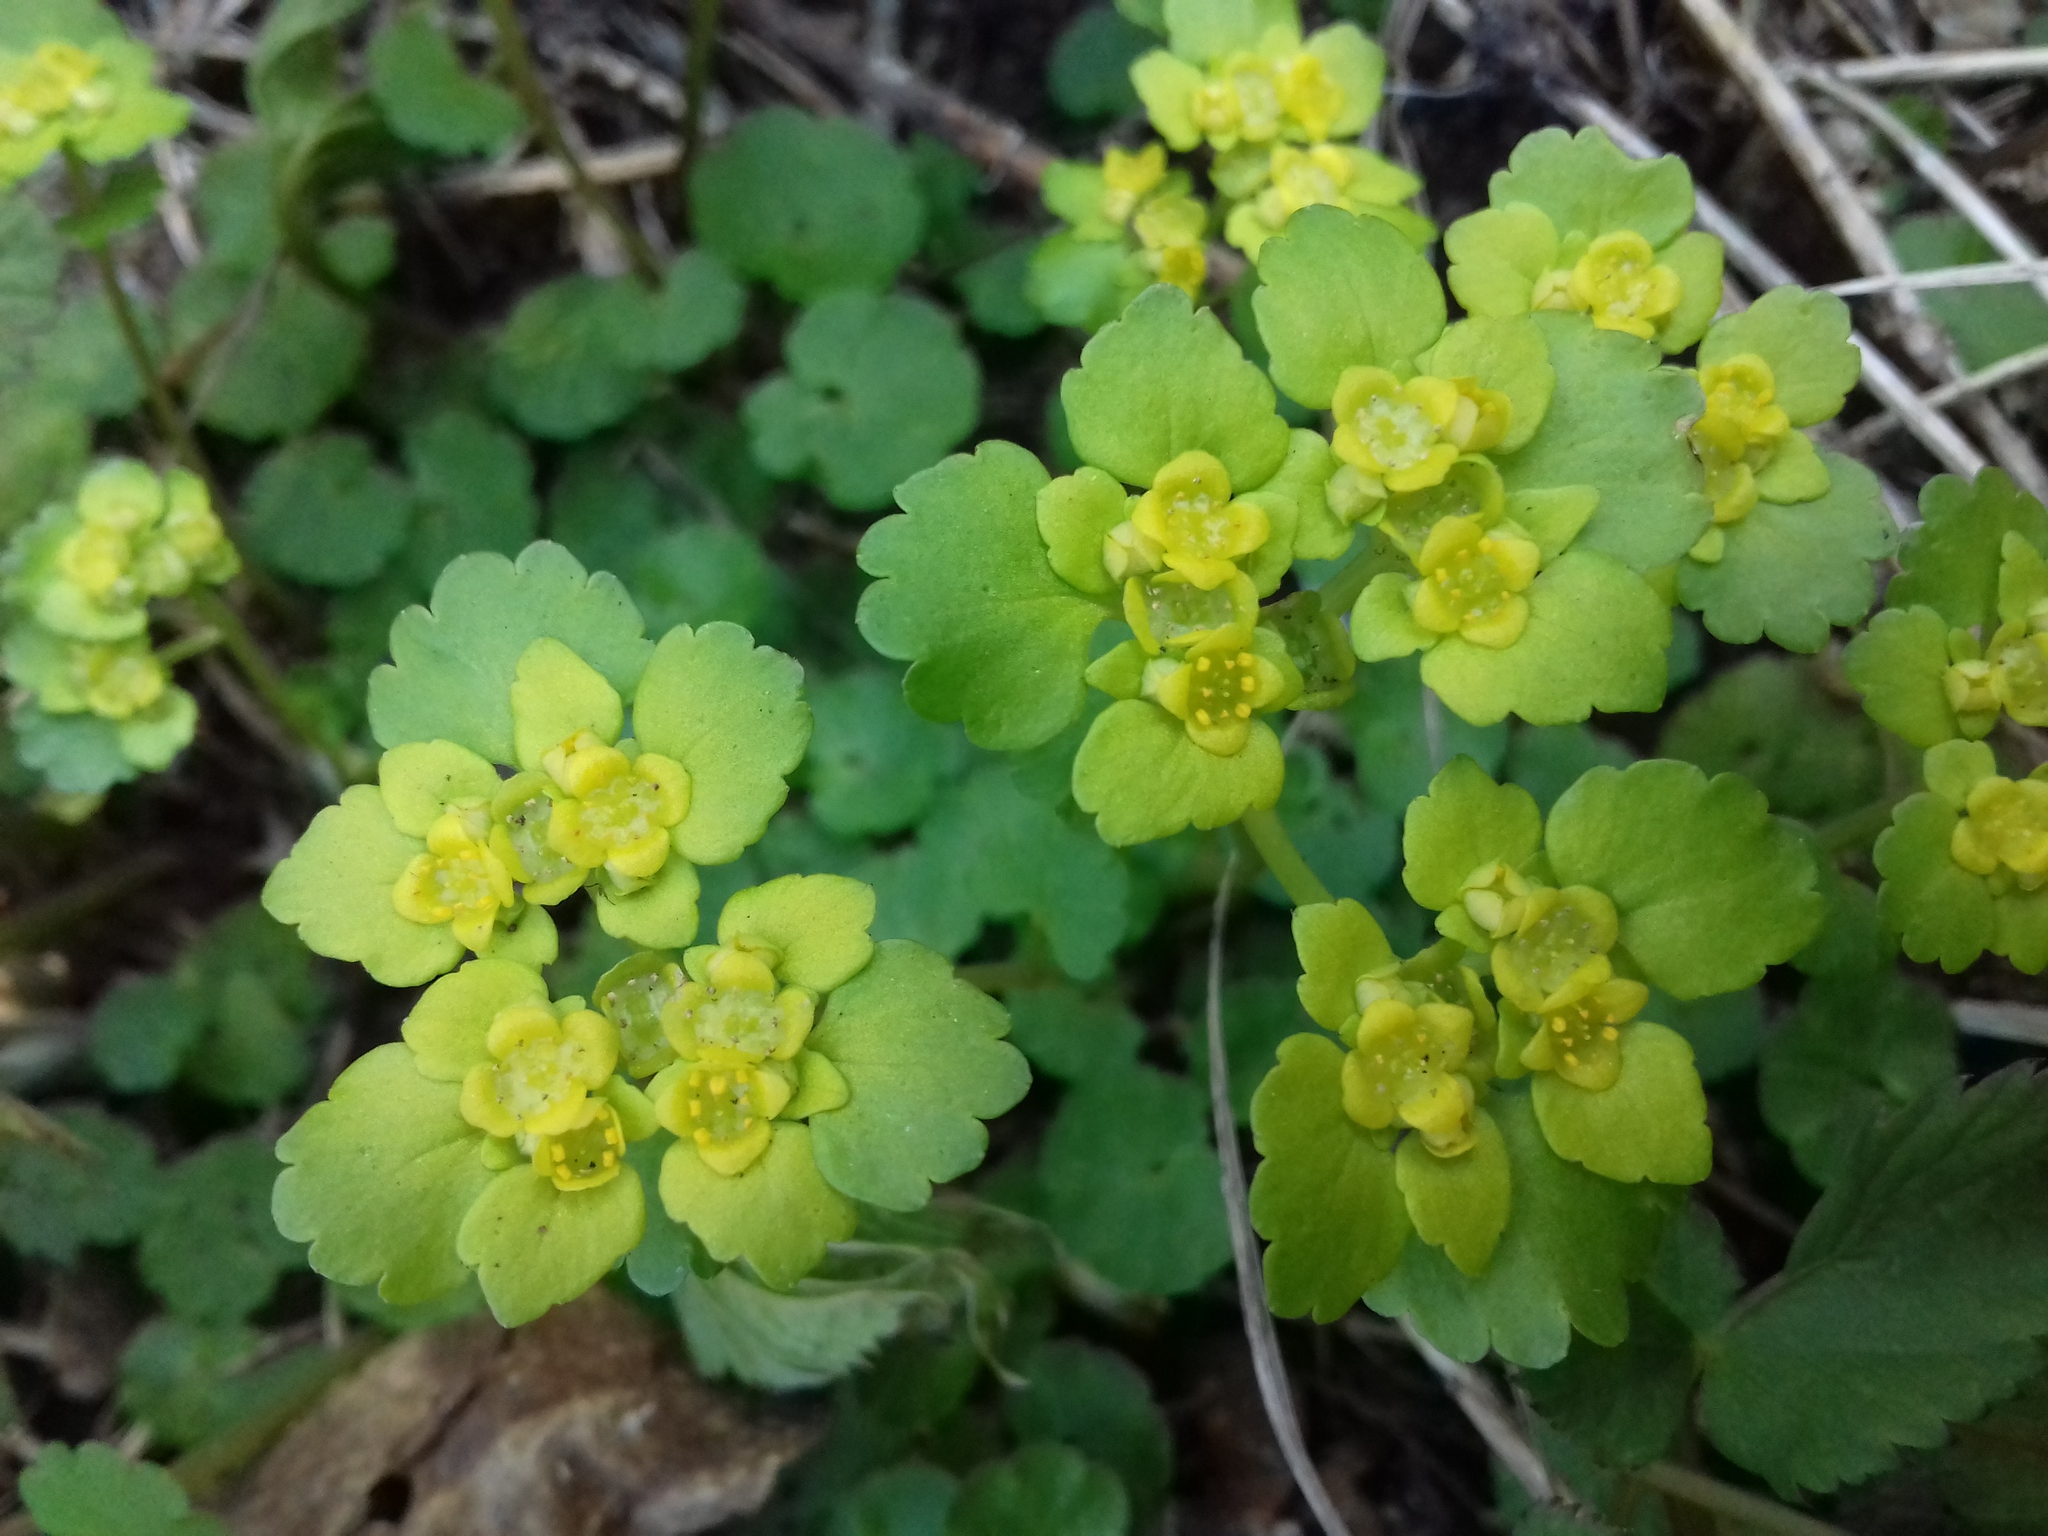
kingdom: Plantae
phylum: Tracheophyta
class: Magnoliopsida
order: Saxifragales
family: Saxifragaceae
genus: Chrysosplenium
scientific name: Chrysosplenium alternifolium
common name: Alternate-leaved golden-saxifrage
